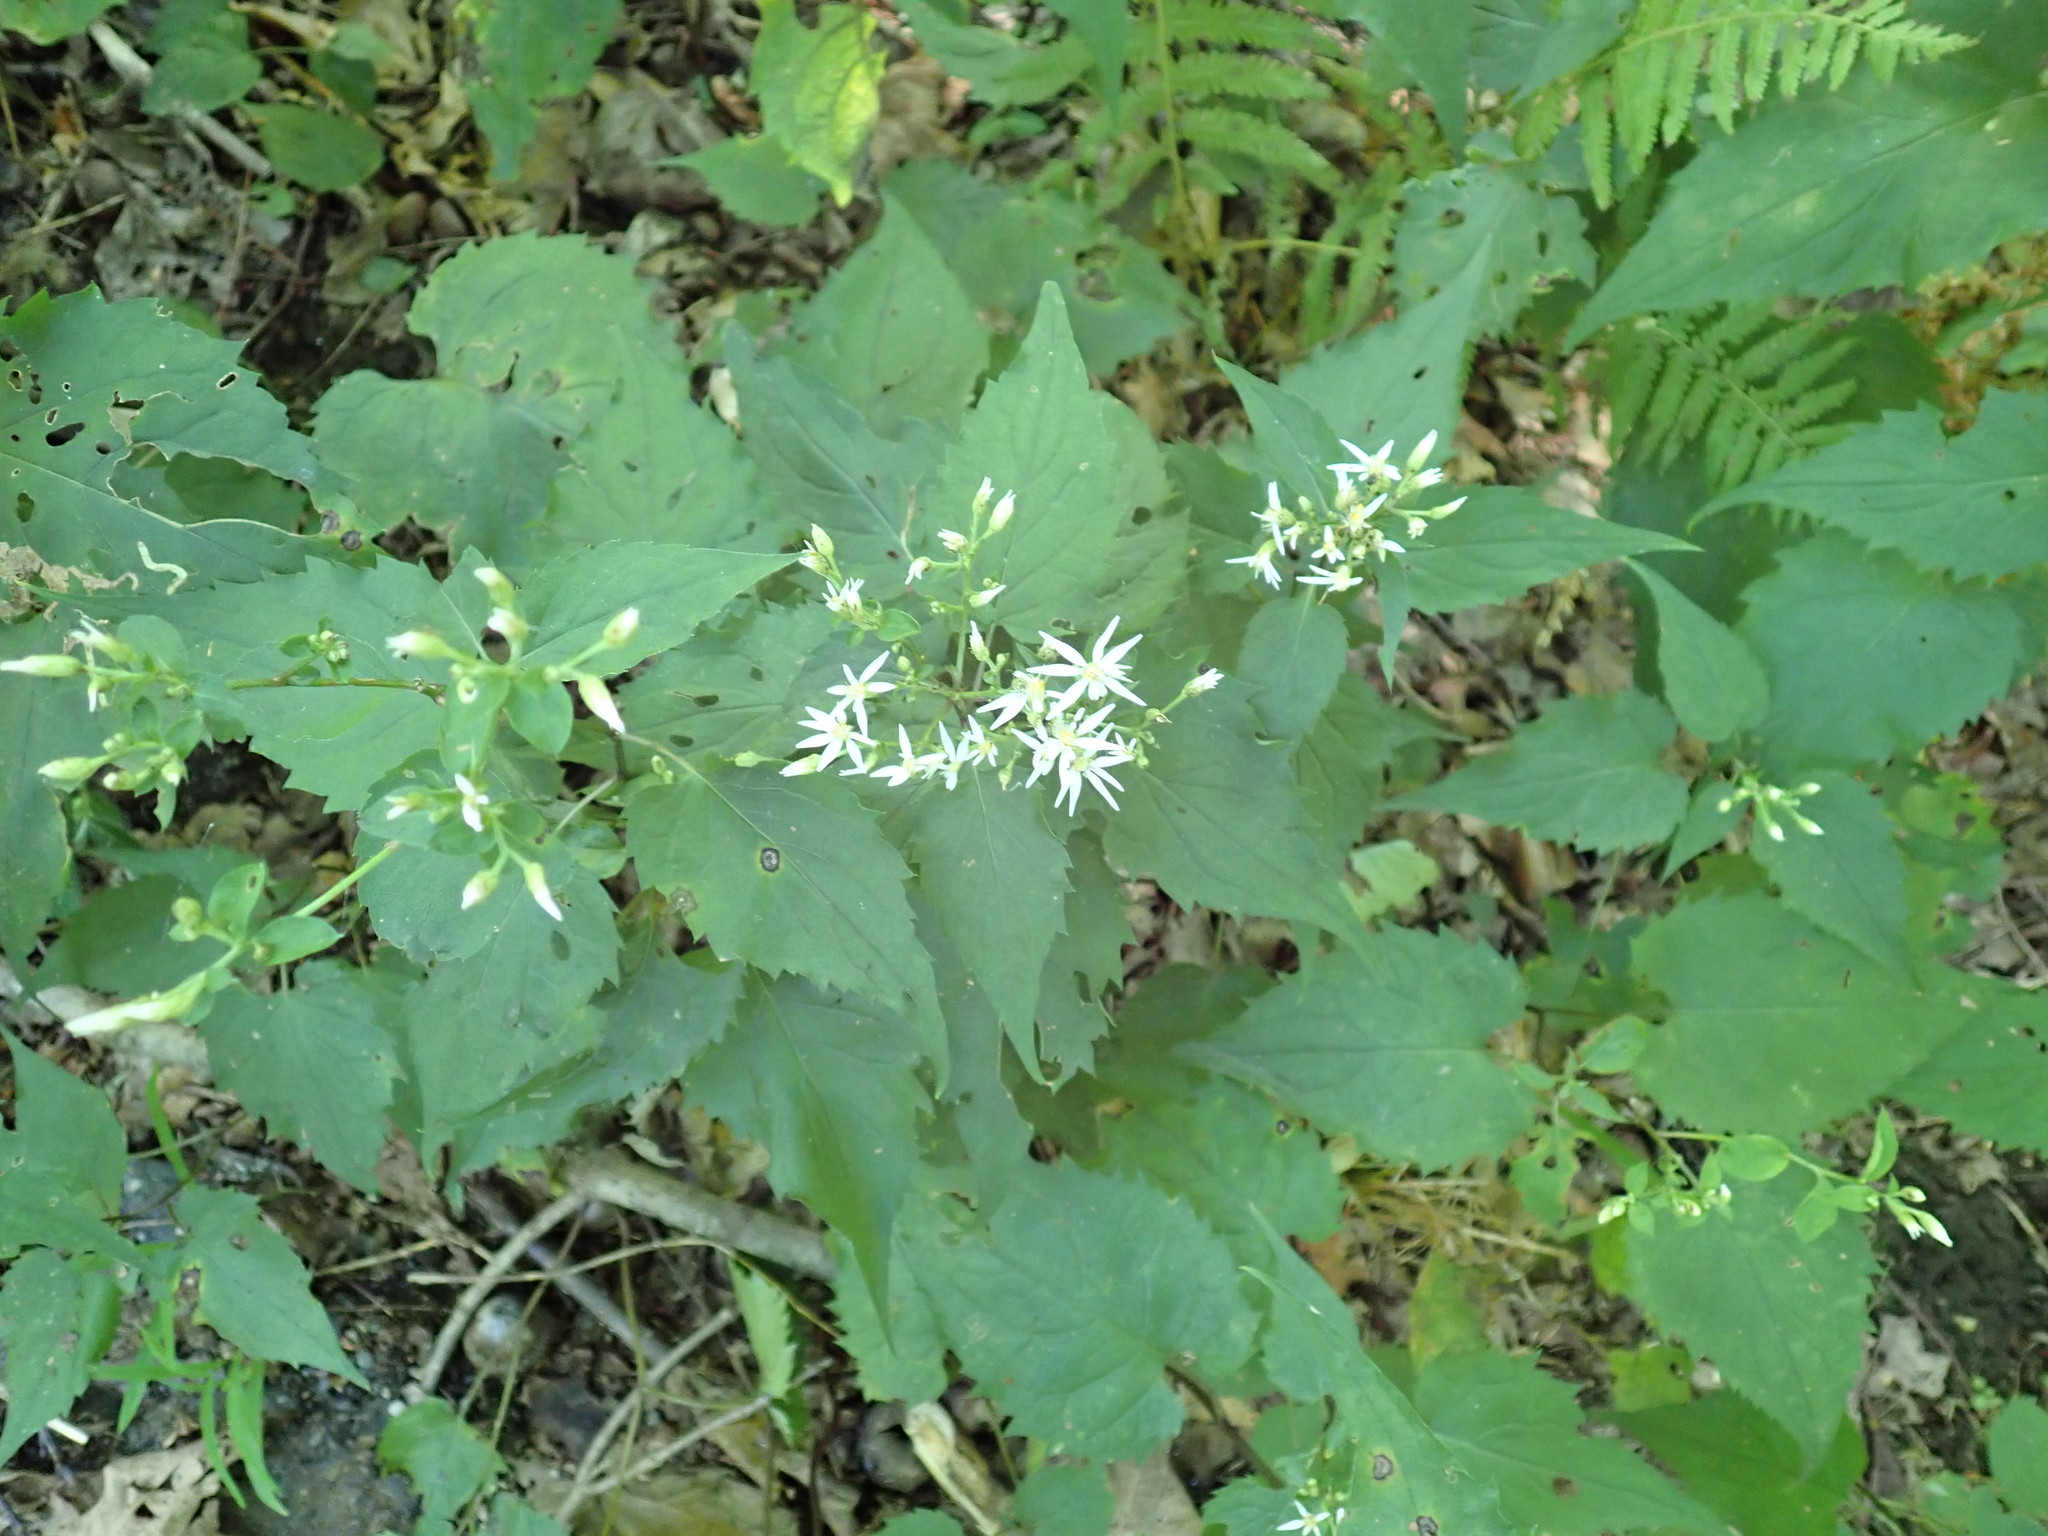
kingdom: Plantae
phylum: Tracheophyta
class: Magnoliopsida
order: Asterales
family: Asteraceae
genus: Eurybia
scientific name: Eurybia divaricata
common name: White wood aster
